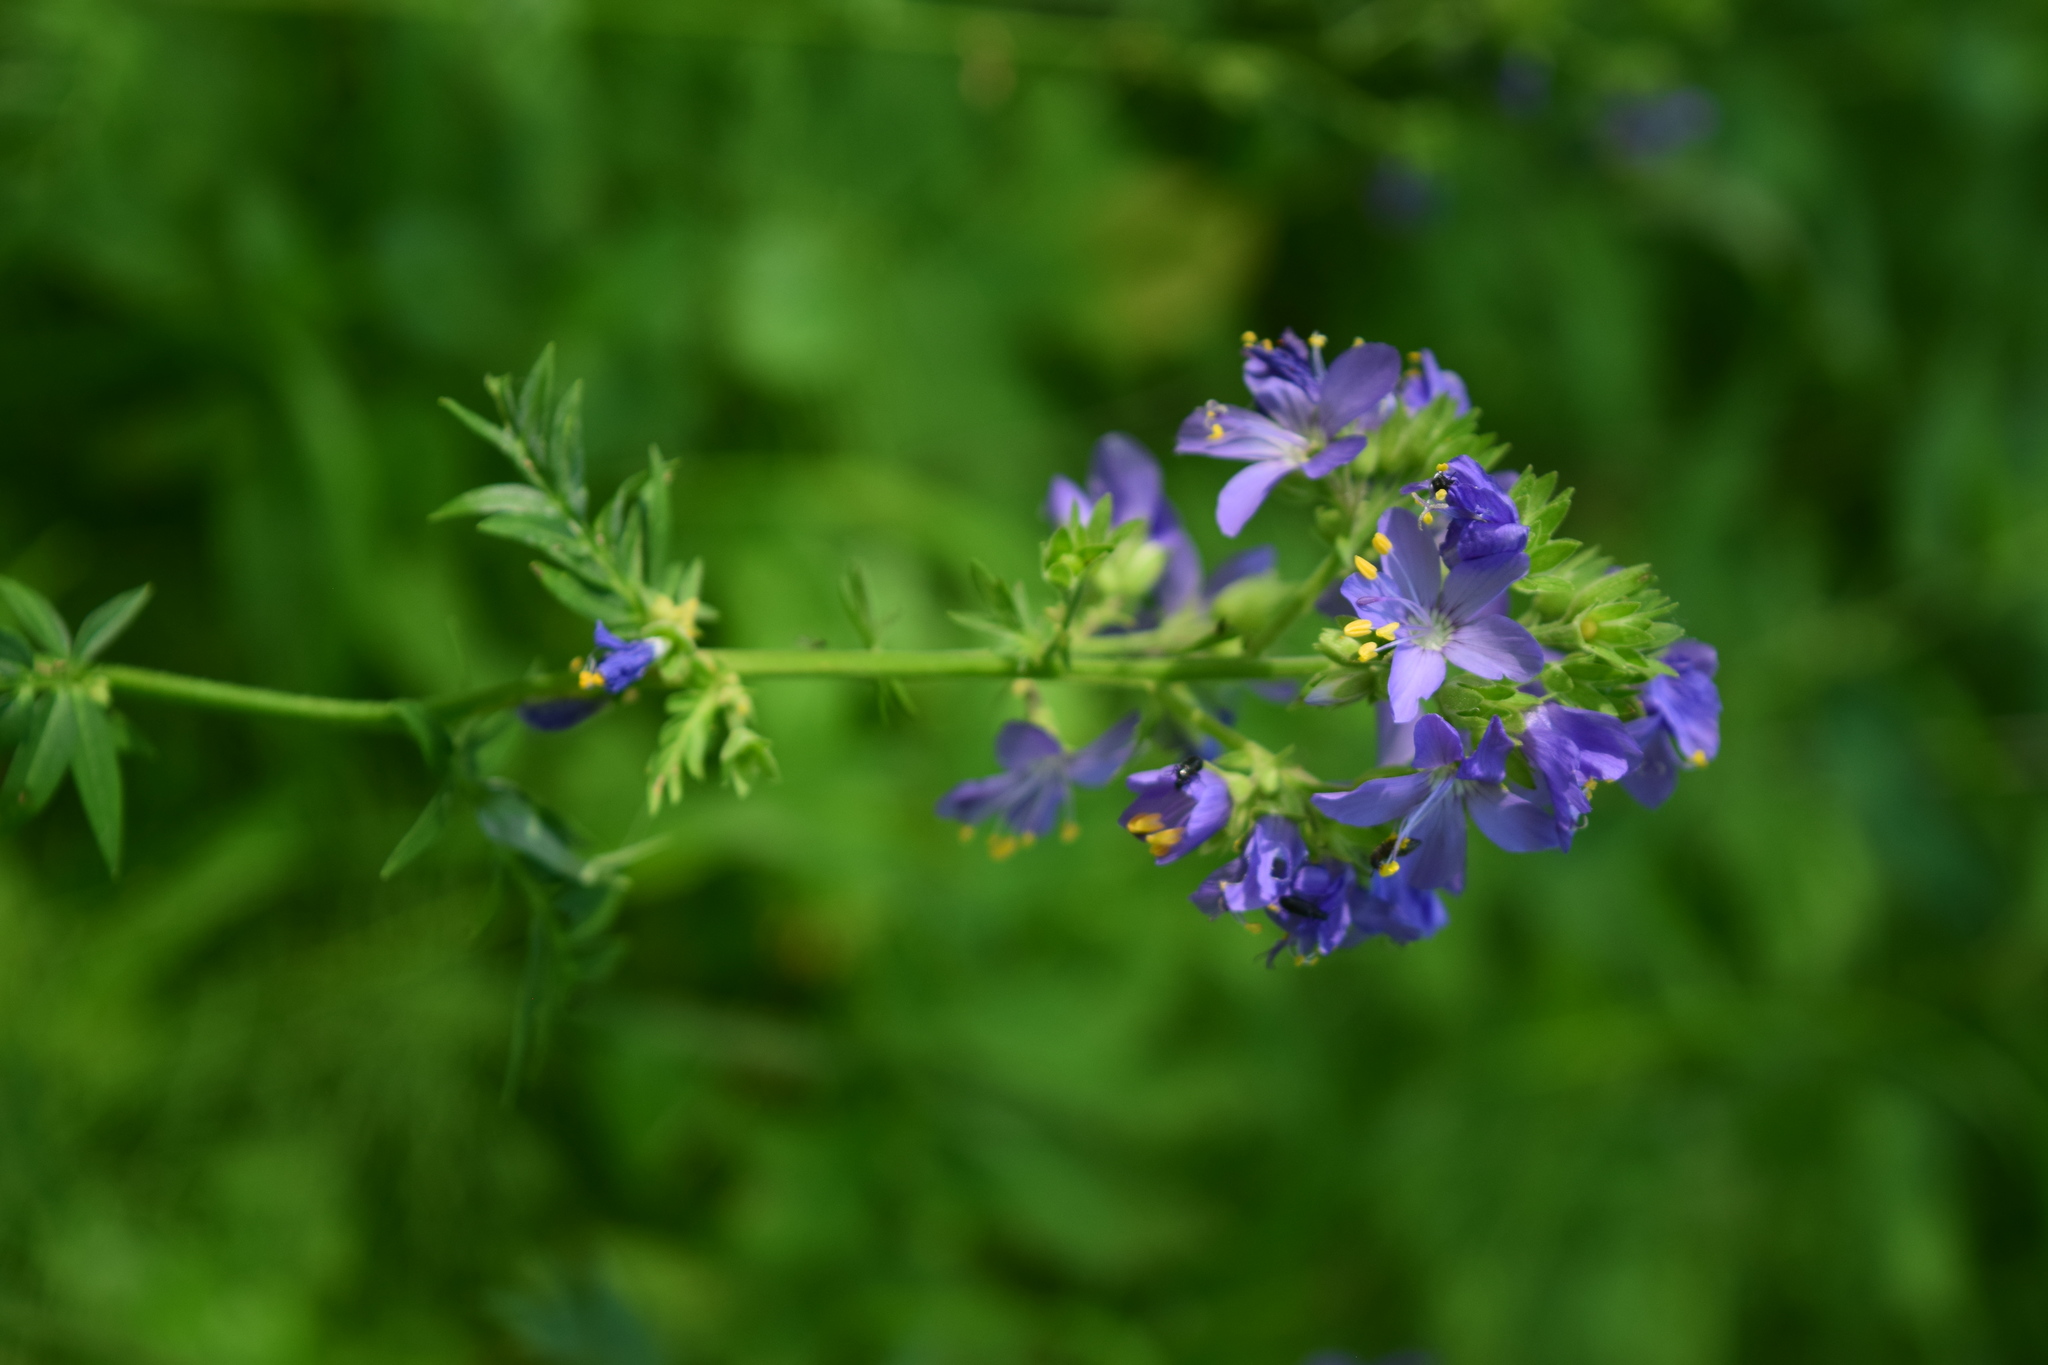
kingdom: Plantae
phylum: Tracheophyta
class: Magnoliopsida
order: Ericales
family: Polemoniaceae
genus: Polemonium
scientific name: Polemonium caeruleum
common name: Jacob's-ladder
